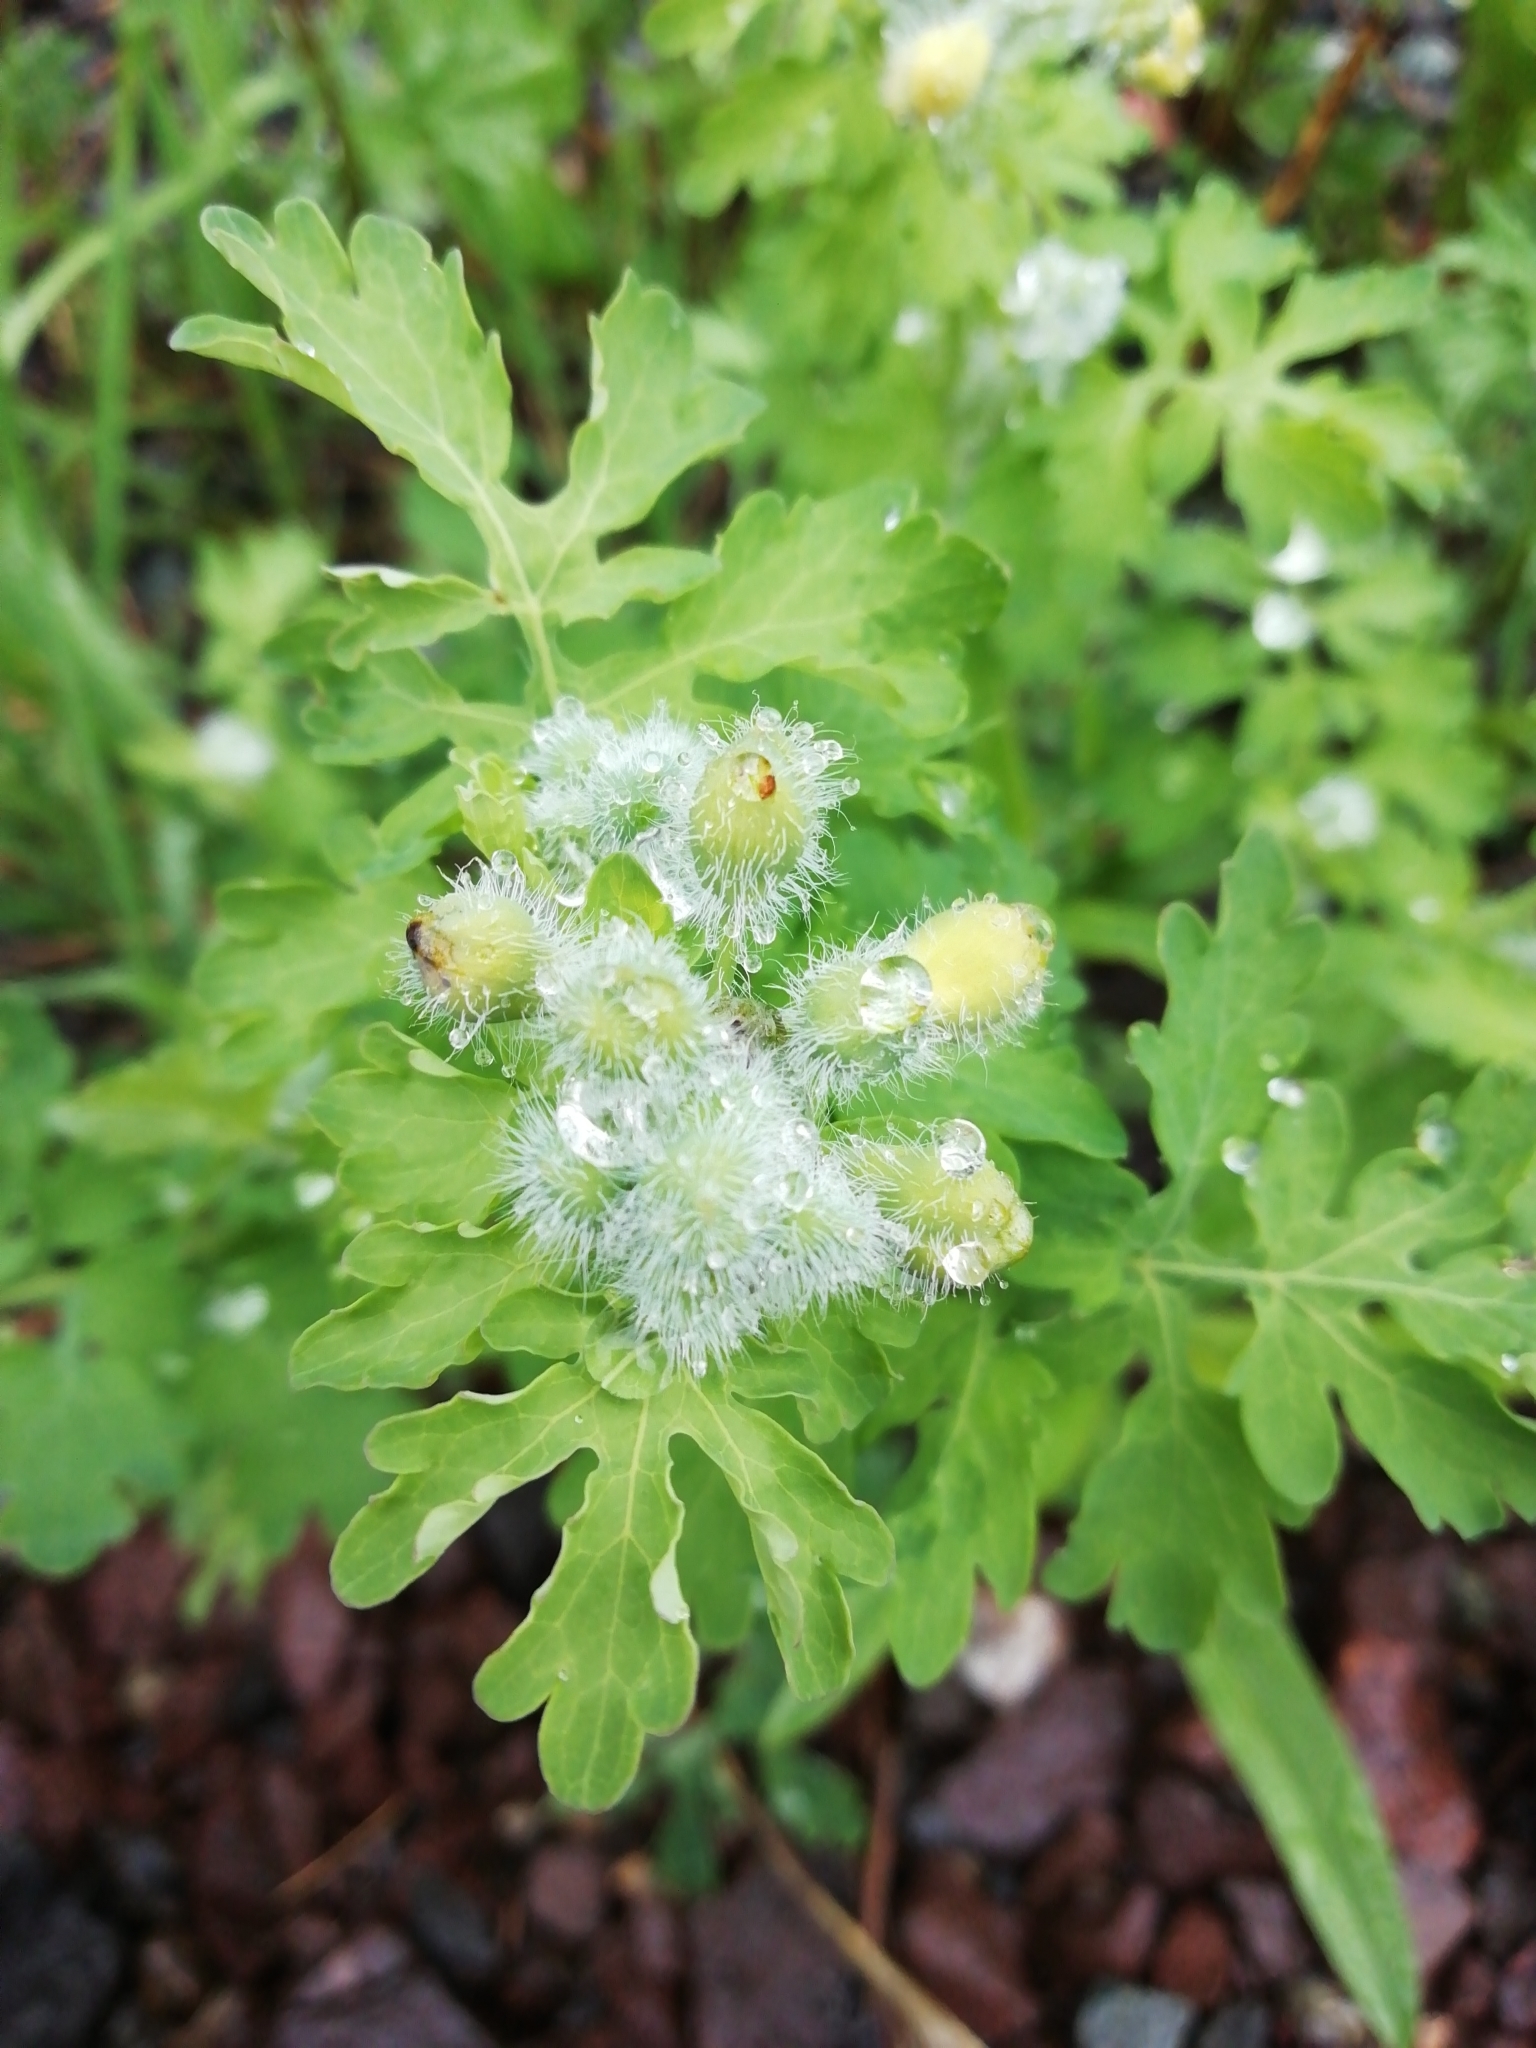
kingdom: Plantae
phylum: Tracheophyta
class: Magnoliopsida
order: Ranunculales
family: Papaveraceae
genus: Chelidonium
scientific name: Chelidonium majus
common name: Greater celandine
